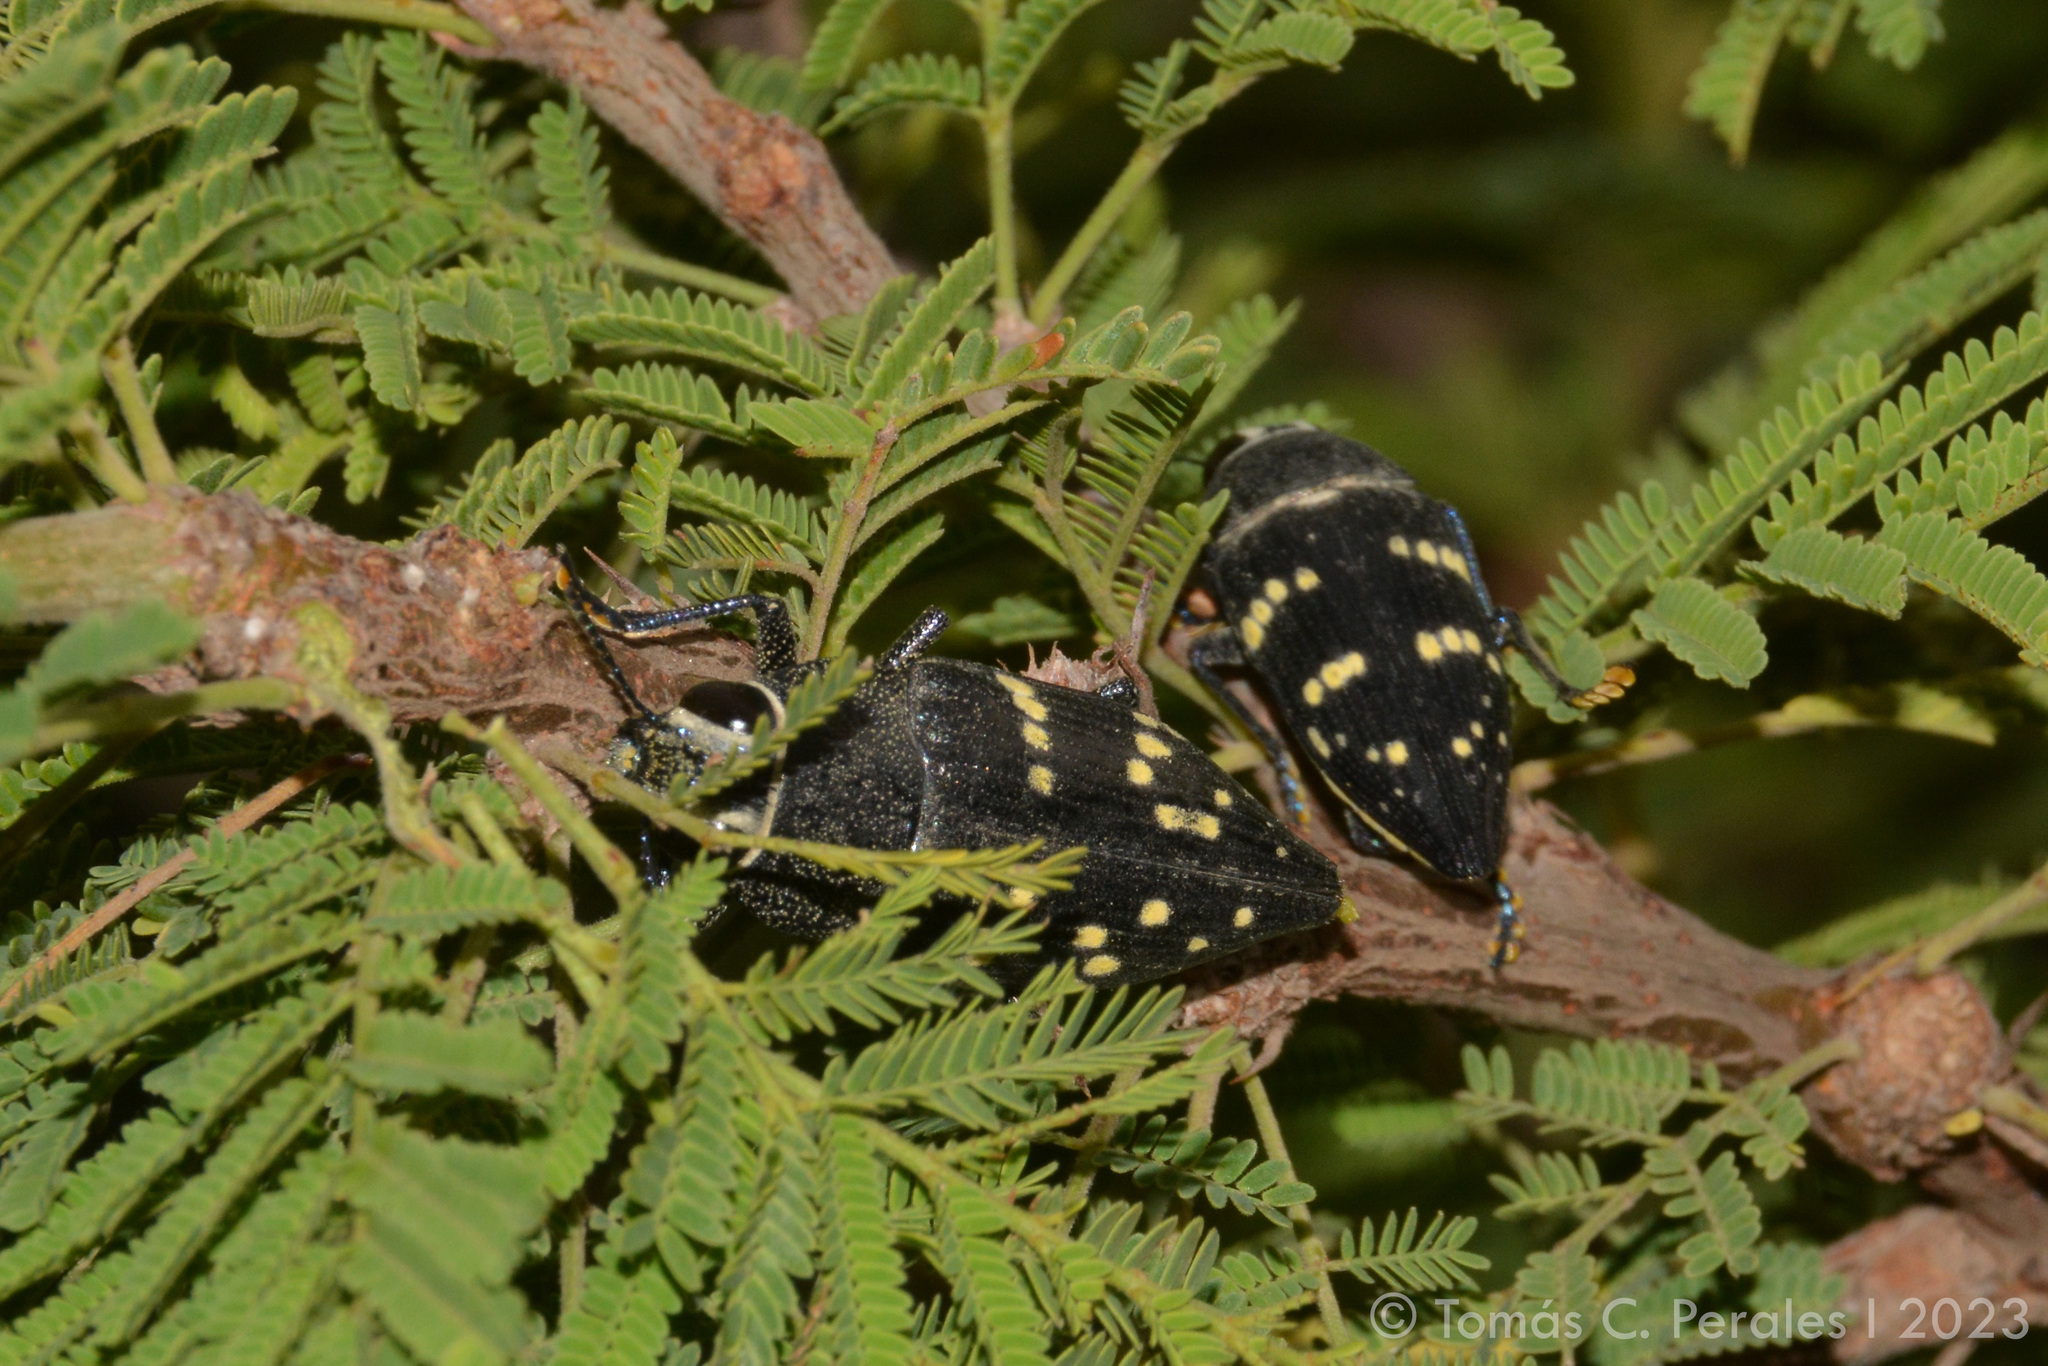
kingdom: Animalia
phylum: Arthropoda
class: Insecta
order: Coleoptera
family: Buprestidae
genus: Lampetis
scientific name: Lampetis tucumana
